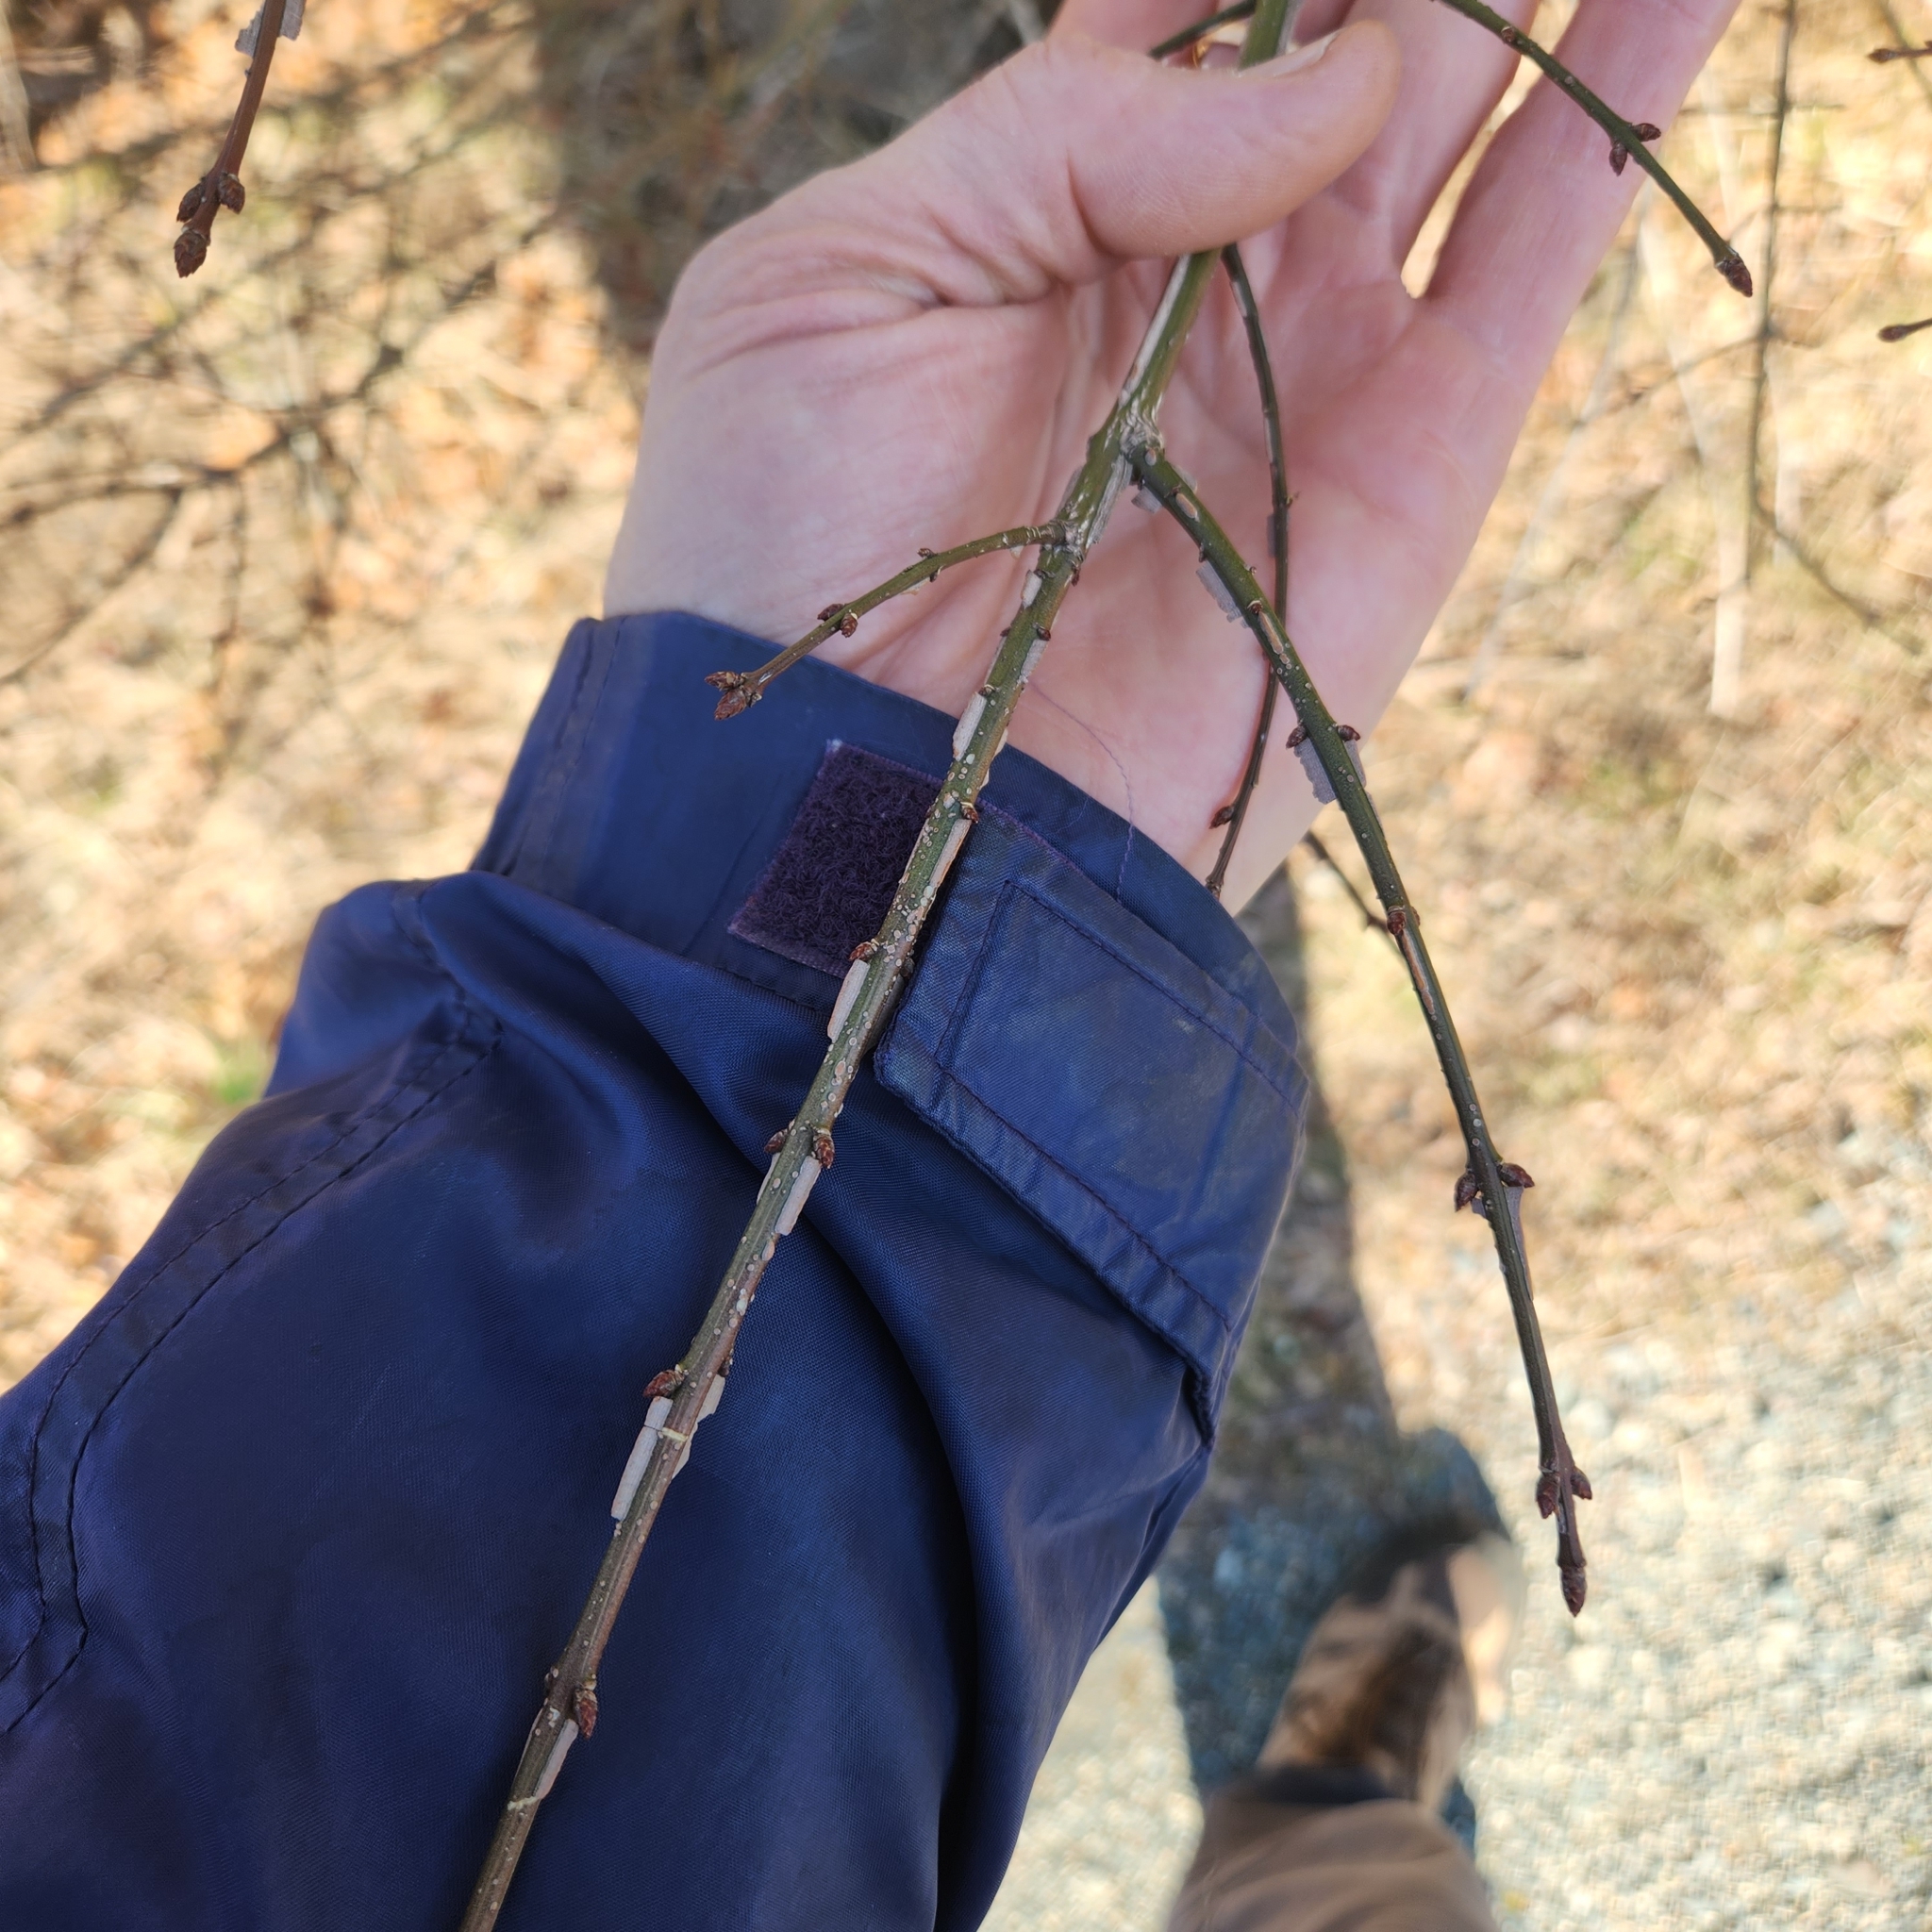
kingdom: Plantae
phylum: Tracheophyta
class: Magnoliopsida
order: Celastrales
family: Celastraceae
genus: Euonymus
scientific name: Euonymus alatus
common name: Winged euonymus
